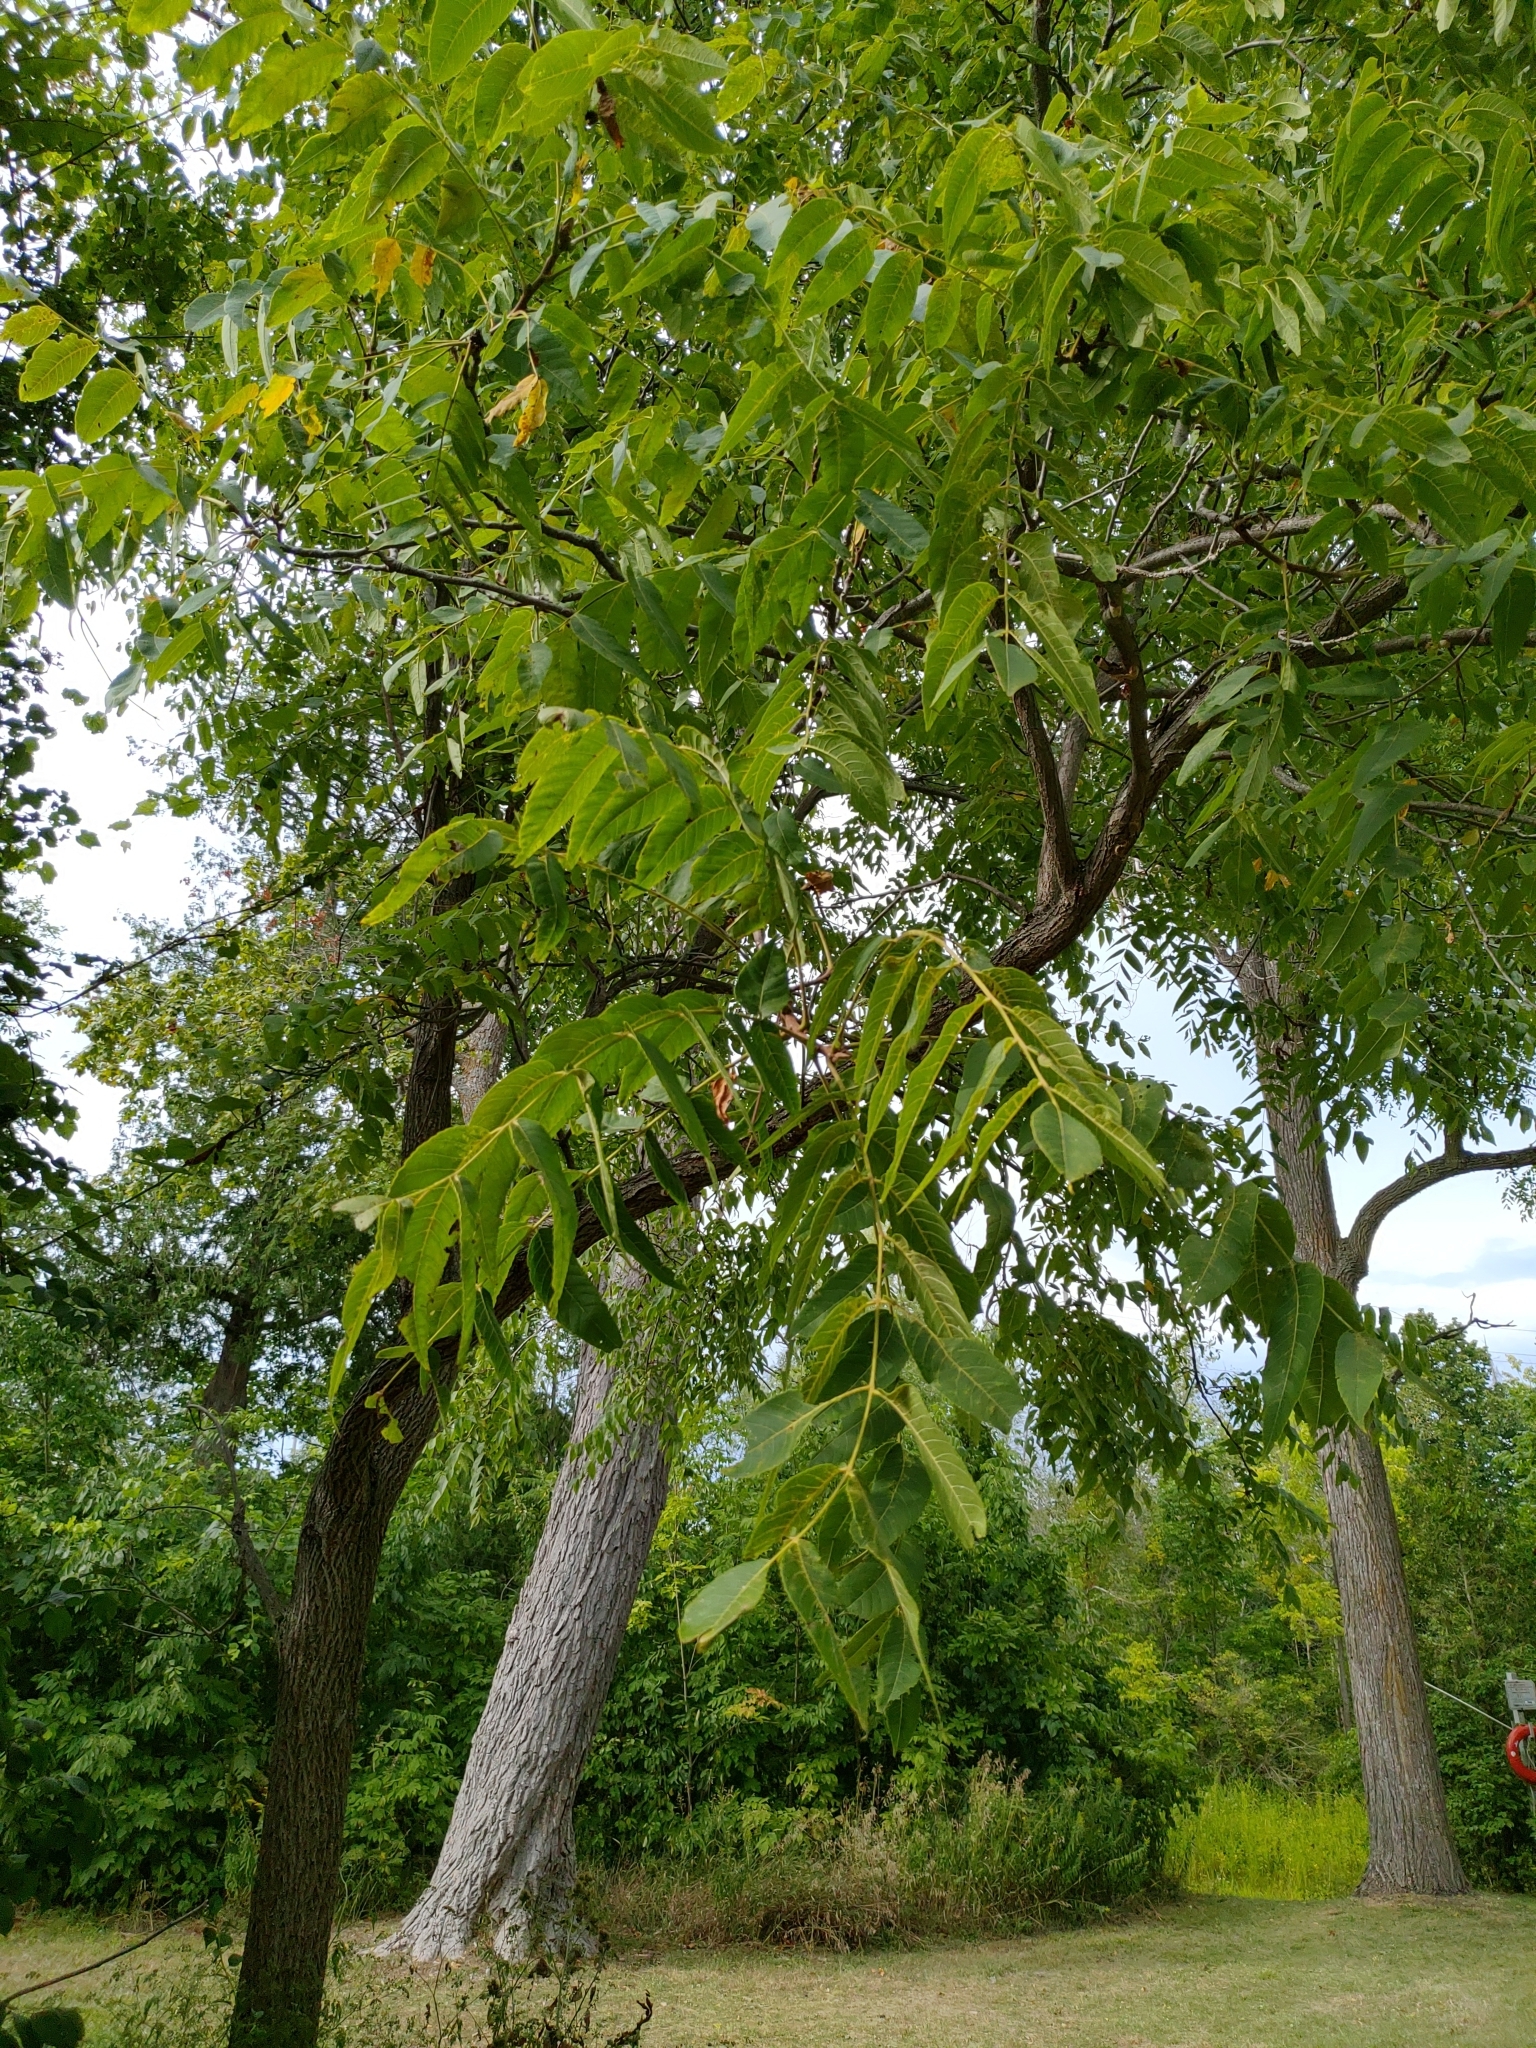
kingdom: Plantae
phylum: Tracheophyta
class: Magnoliopsida
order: Fagales
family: Juglandaceae
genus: Juglans
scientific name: Juglans nigra
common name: Black walnut
